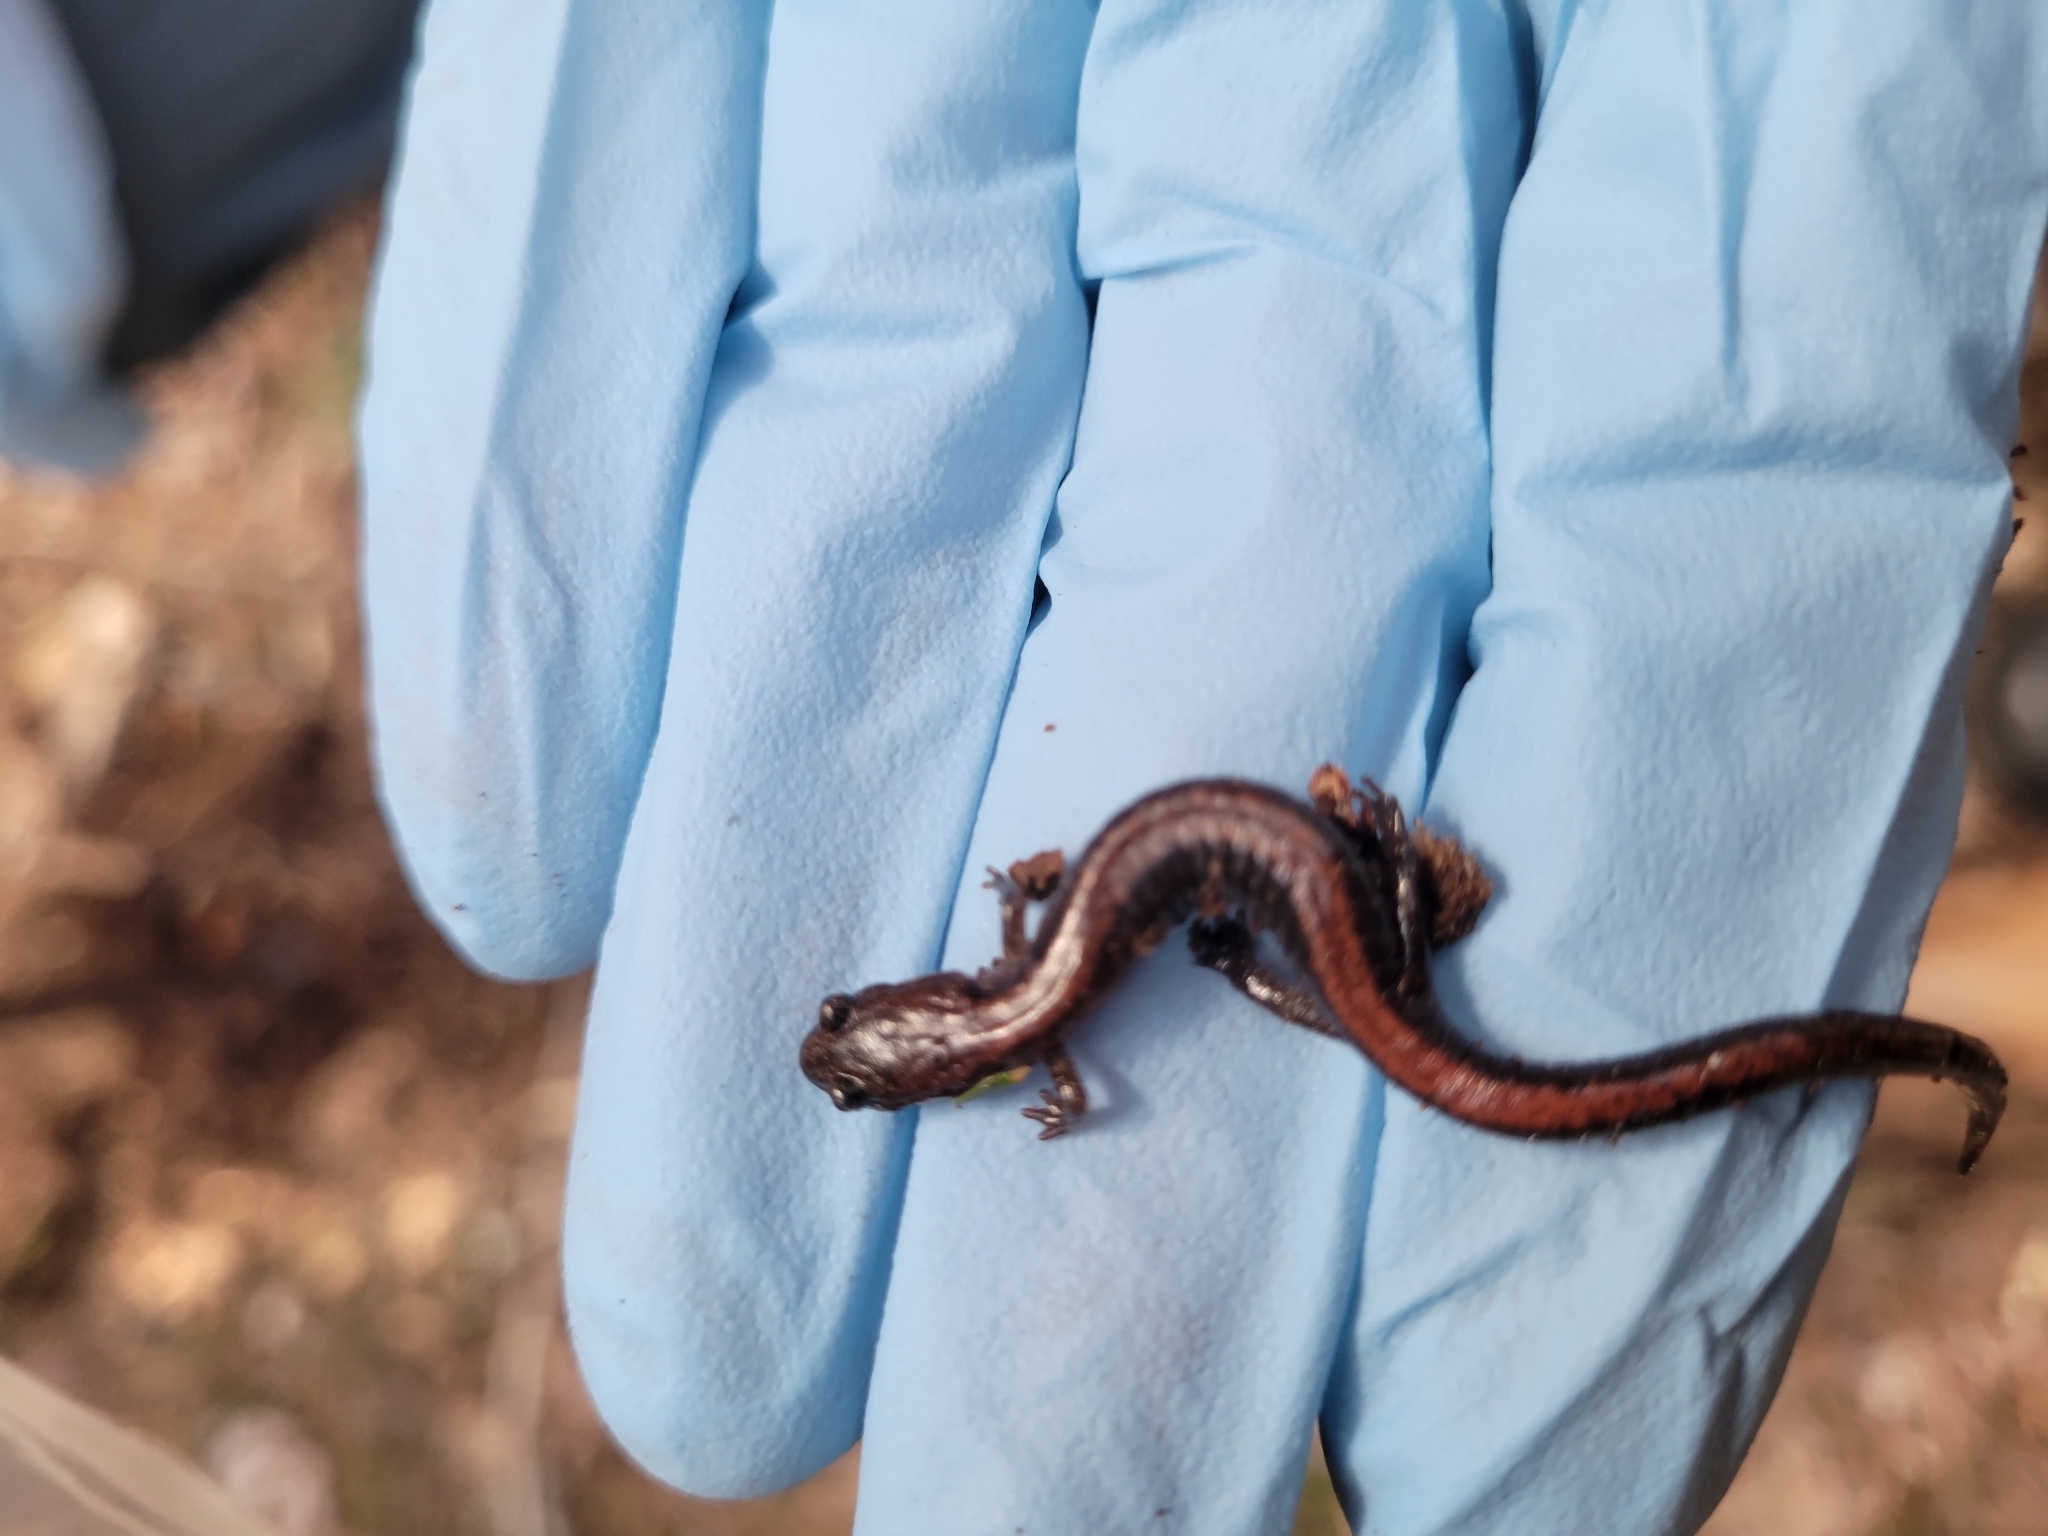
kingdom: Animalia
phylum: Chordata
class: Amphibia
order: Caudata
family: Plethodontidae
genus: Plethodon
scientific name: Plethodon cinereus
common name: Redback salamander
